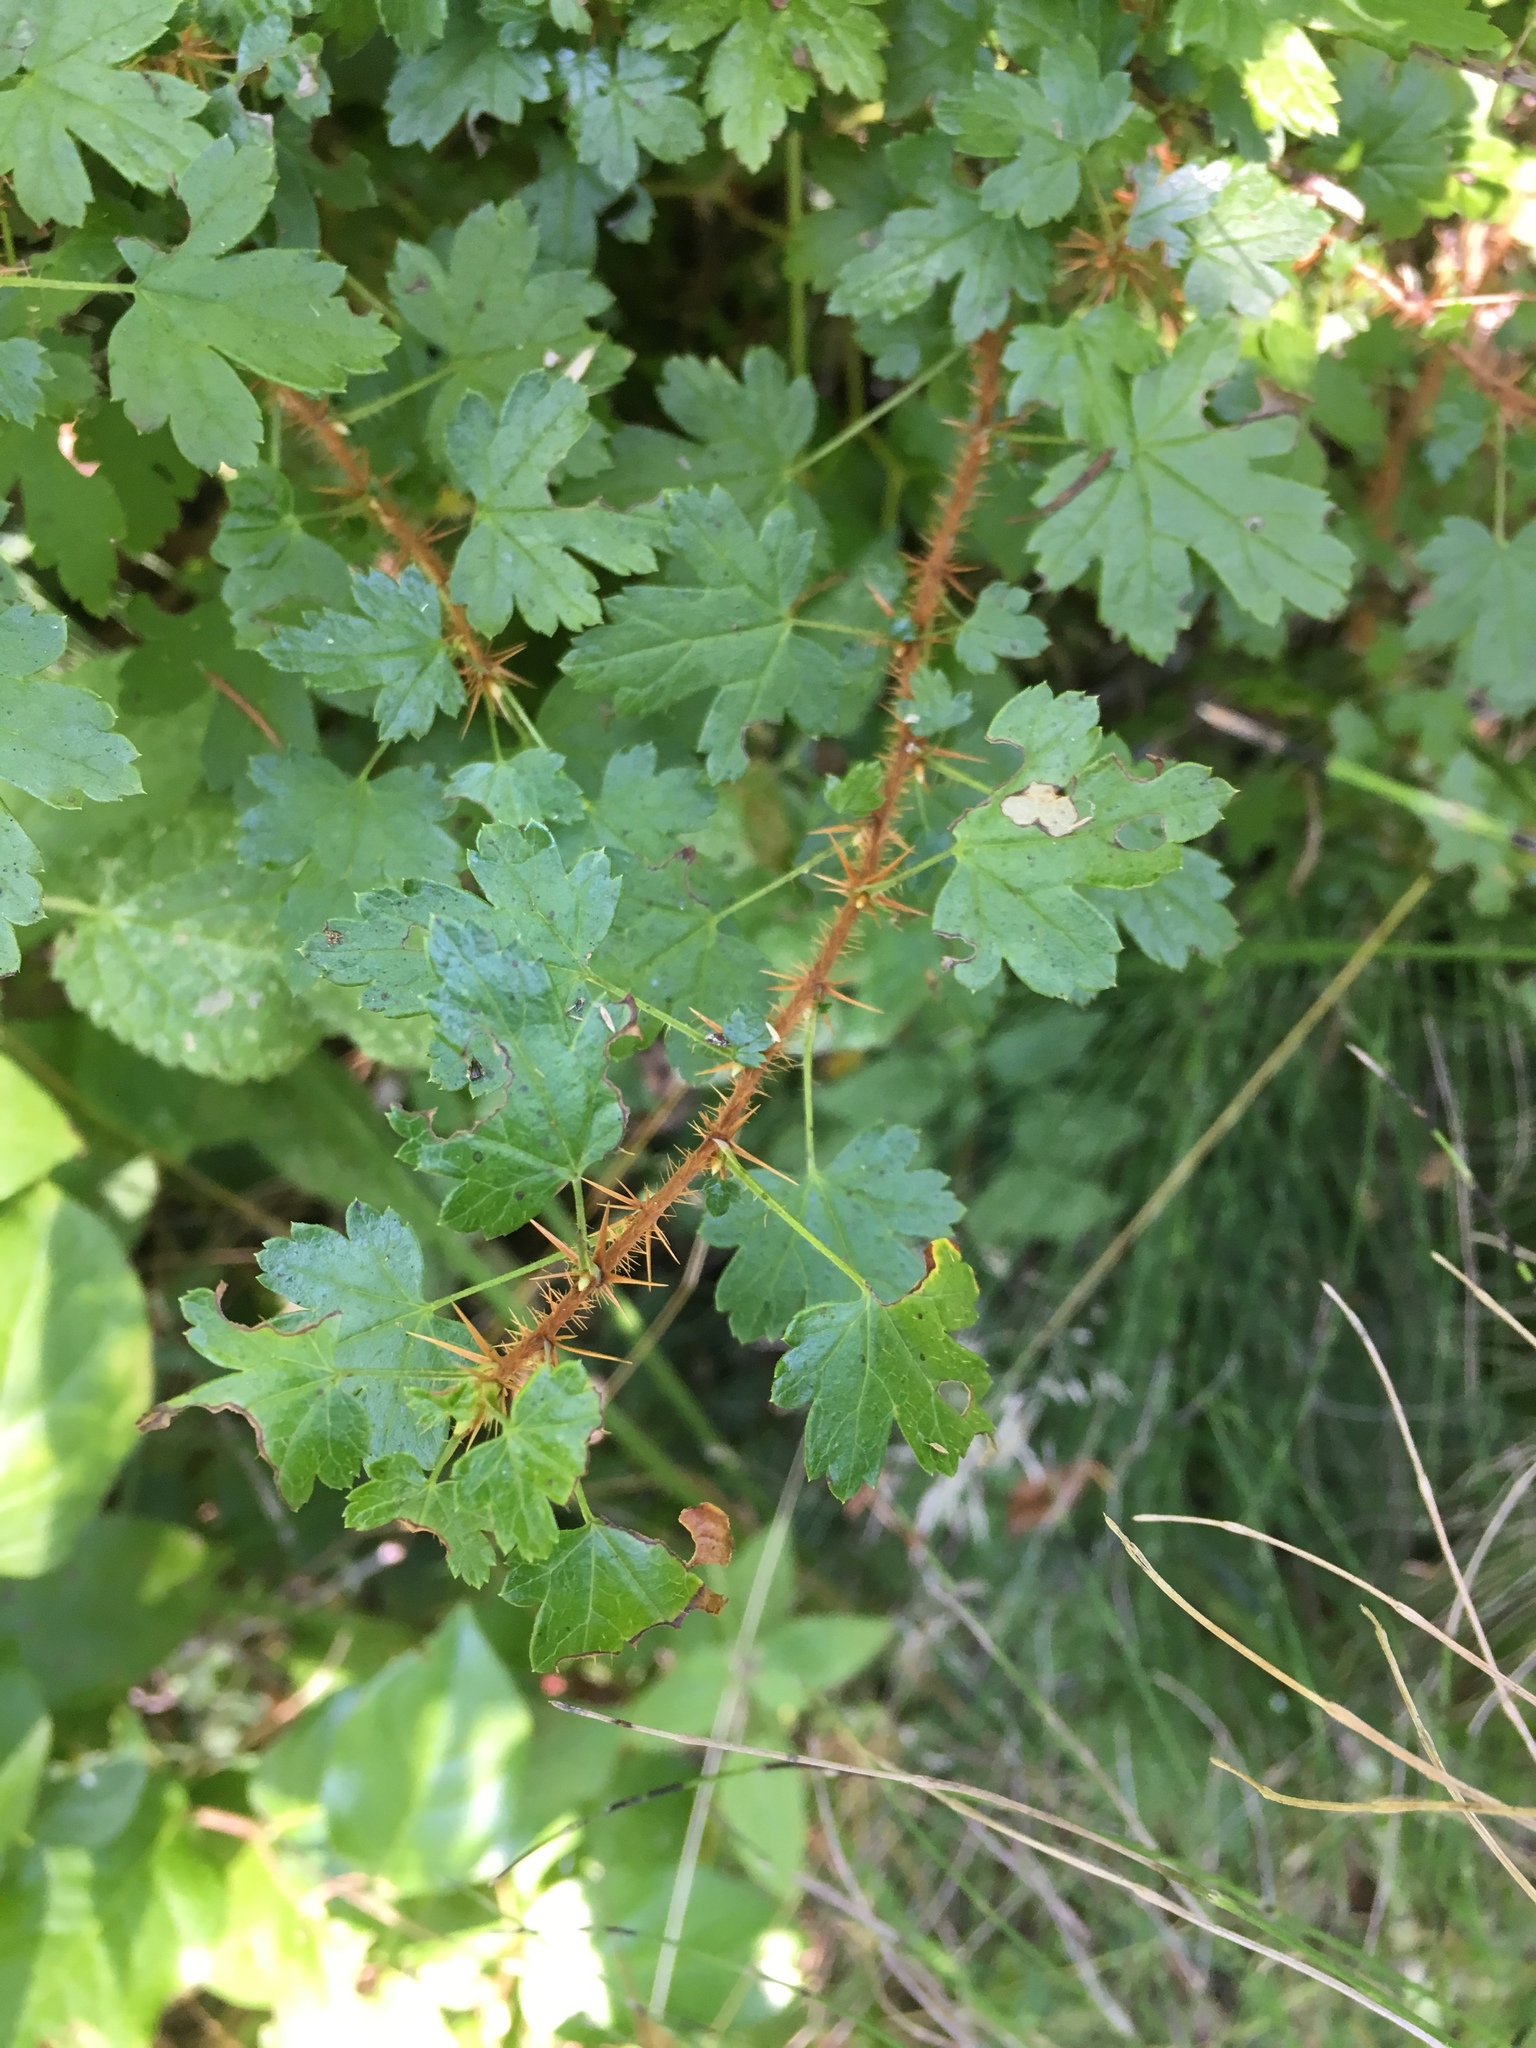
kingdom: Plantae
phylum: Tracheophyta
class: Magnoliopsida
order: Saxifragales
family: Grossulariaceae
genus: Ribes
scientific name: Ribes lacustre
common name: Black gooseberry
